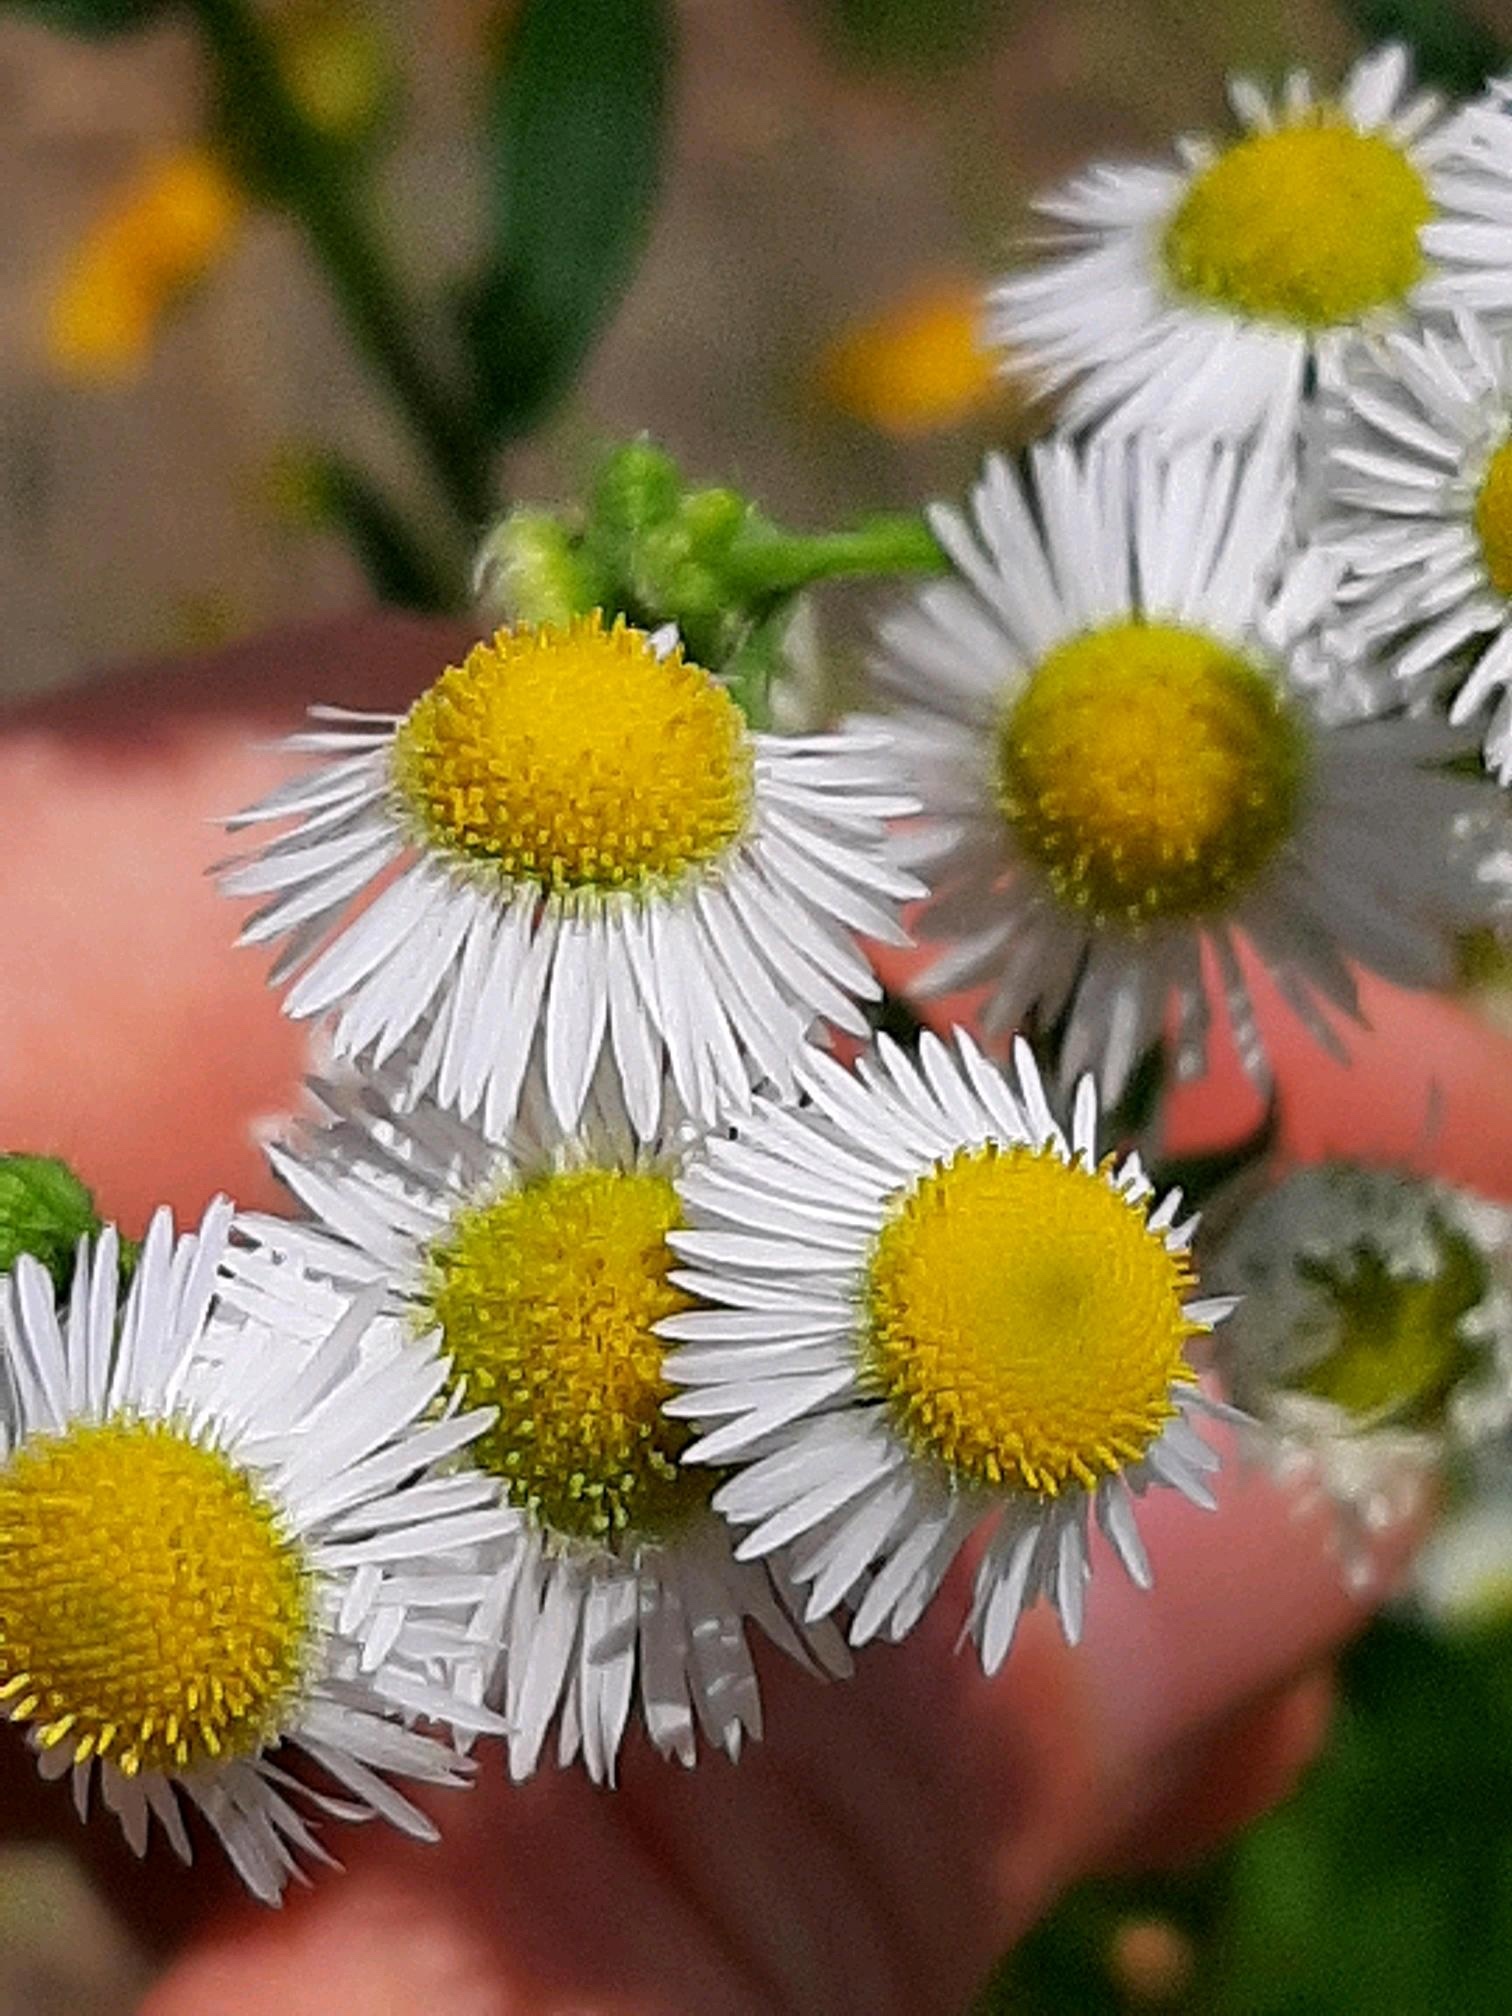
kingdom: Plantae
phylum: Tracheophyta
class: Magnoliopsida
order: Asterales
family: Asteraceae
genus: Erigeron
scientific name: Erigeron annuus
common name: Tall fleabane
